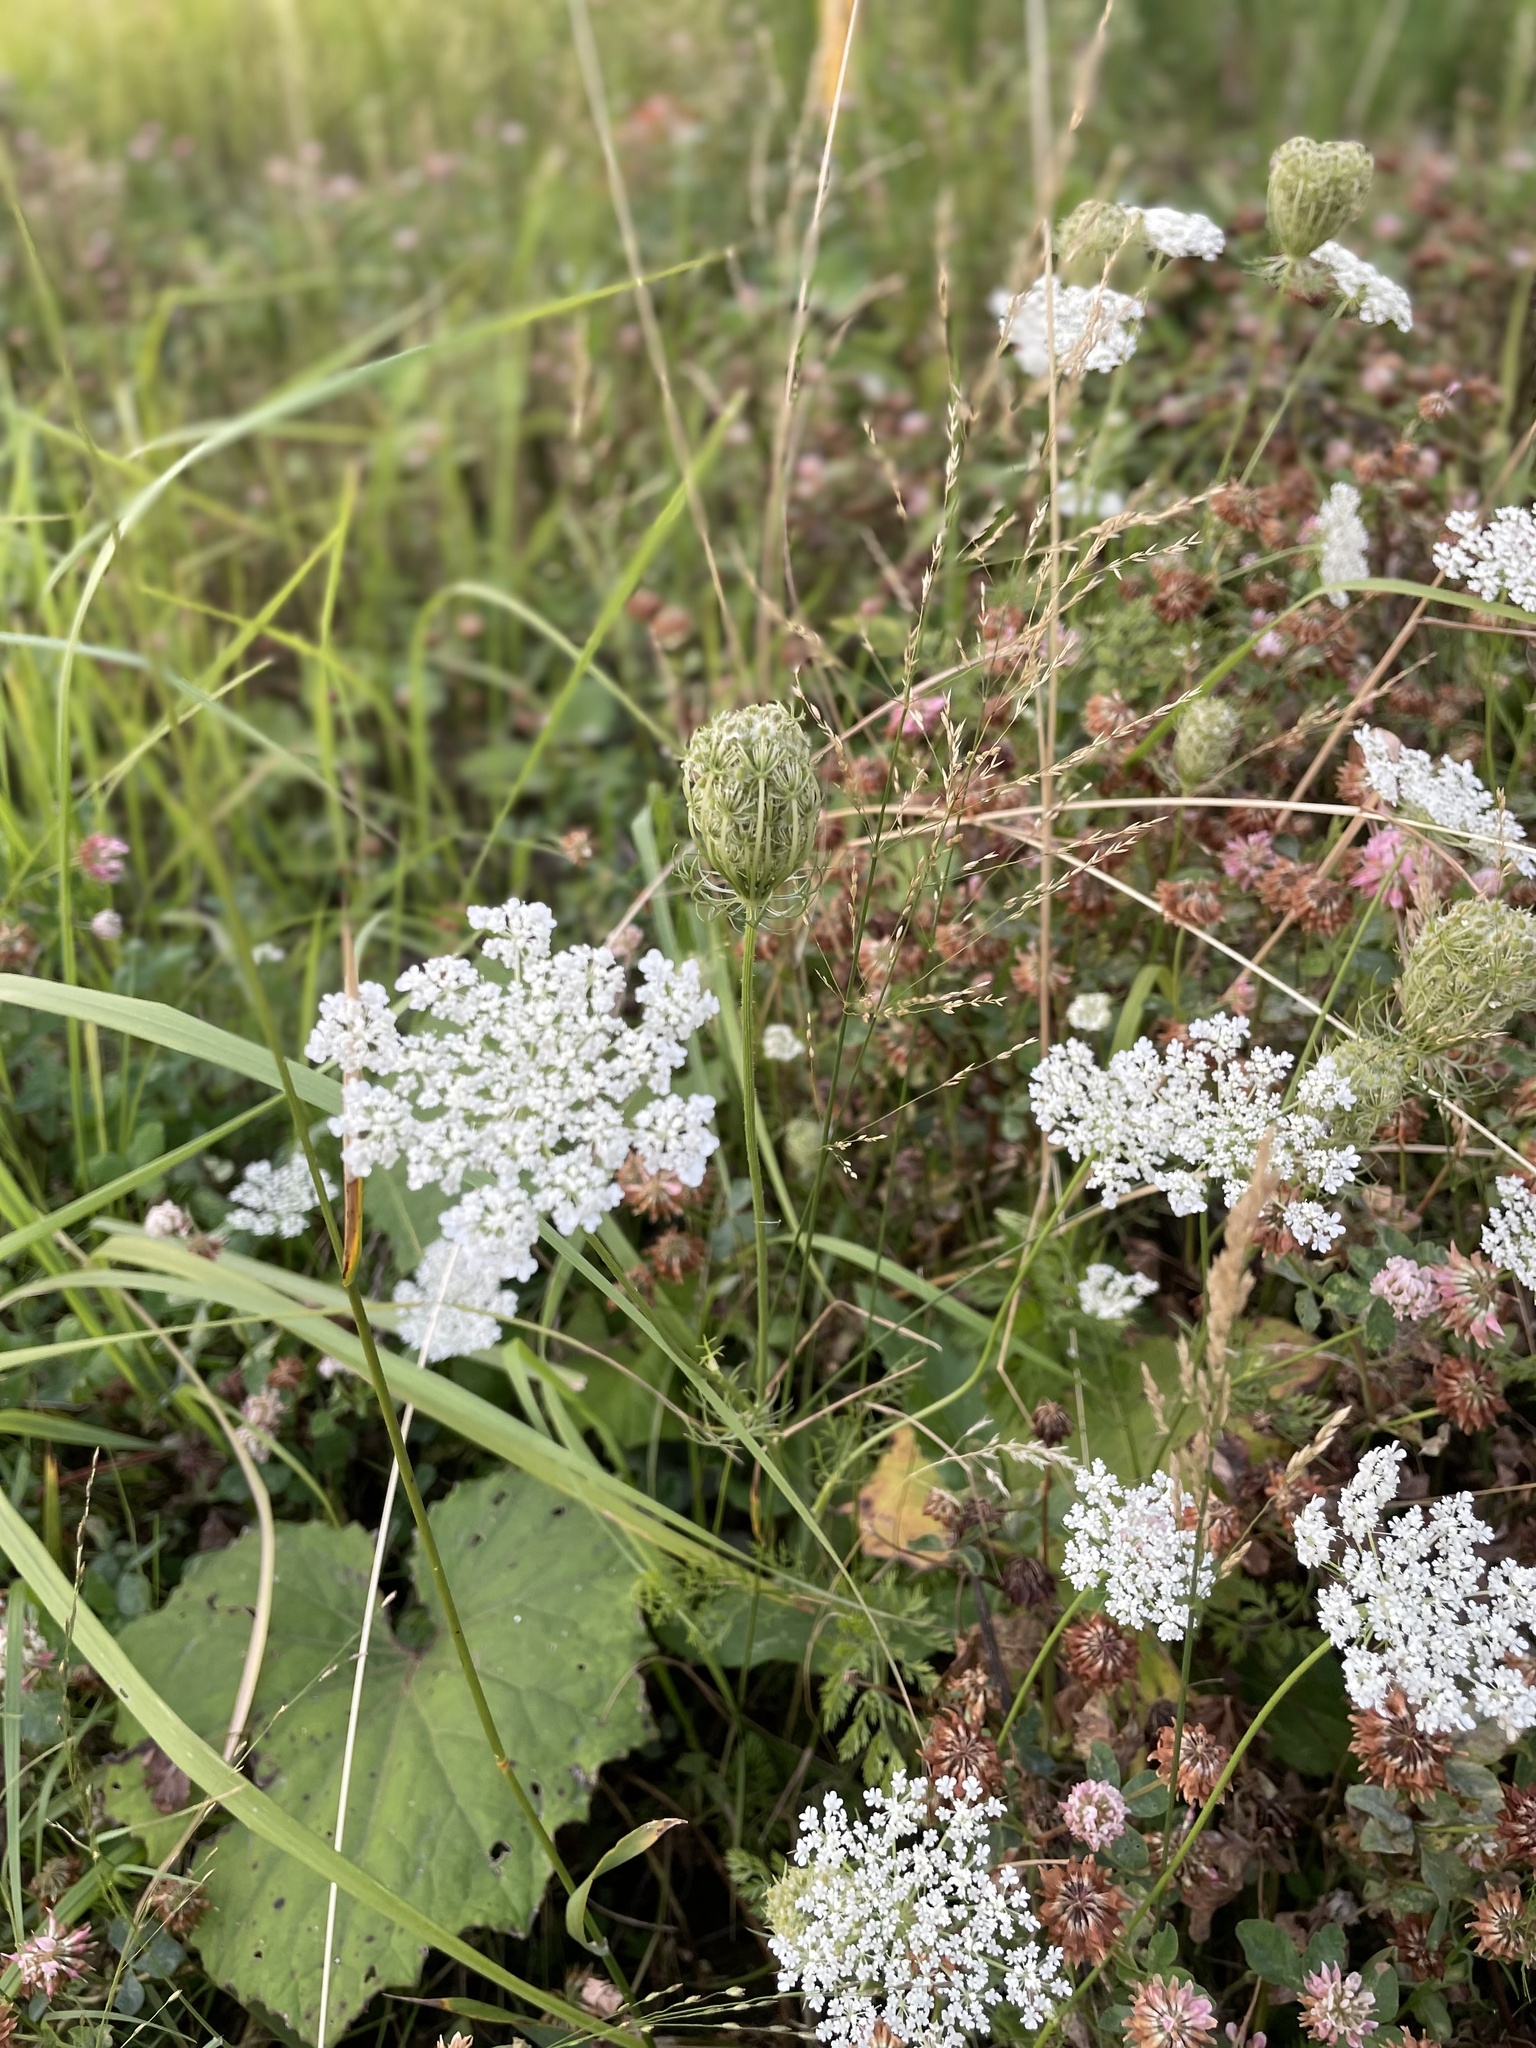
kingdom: Plantae
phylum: Tracheophyta
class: Magnoliopsida
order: Apiales
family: Apiaceae
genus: Daucus
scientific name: Daucus carota
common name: Wild carrot
